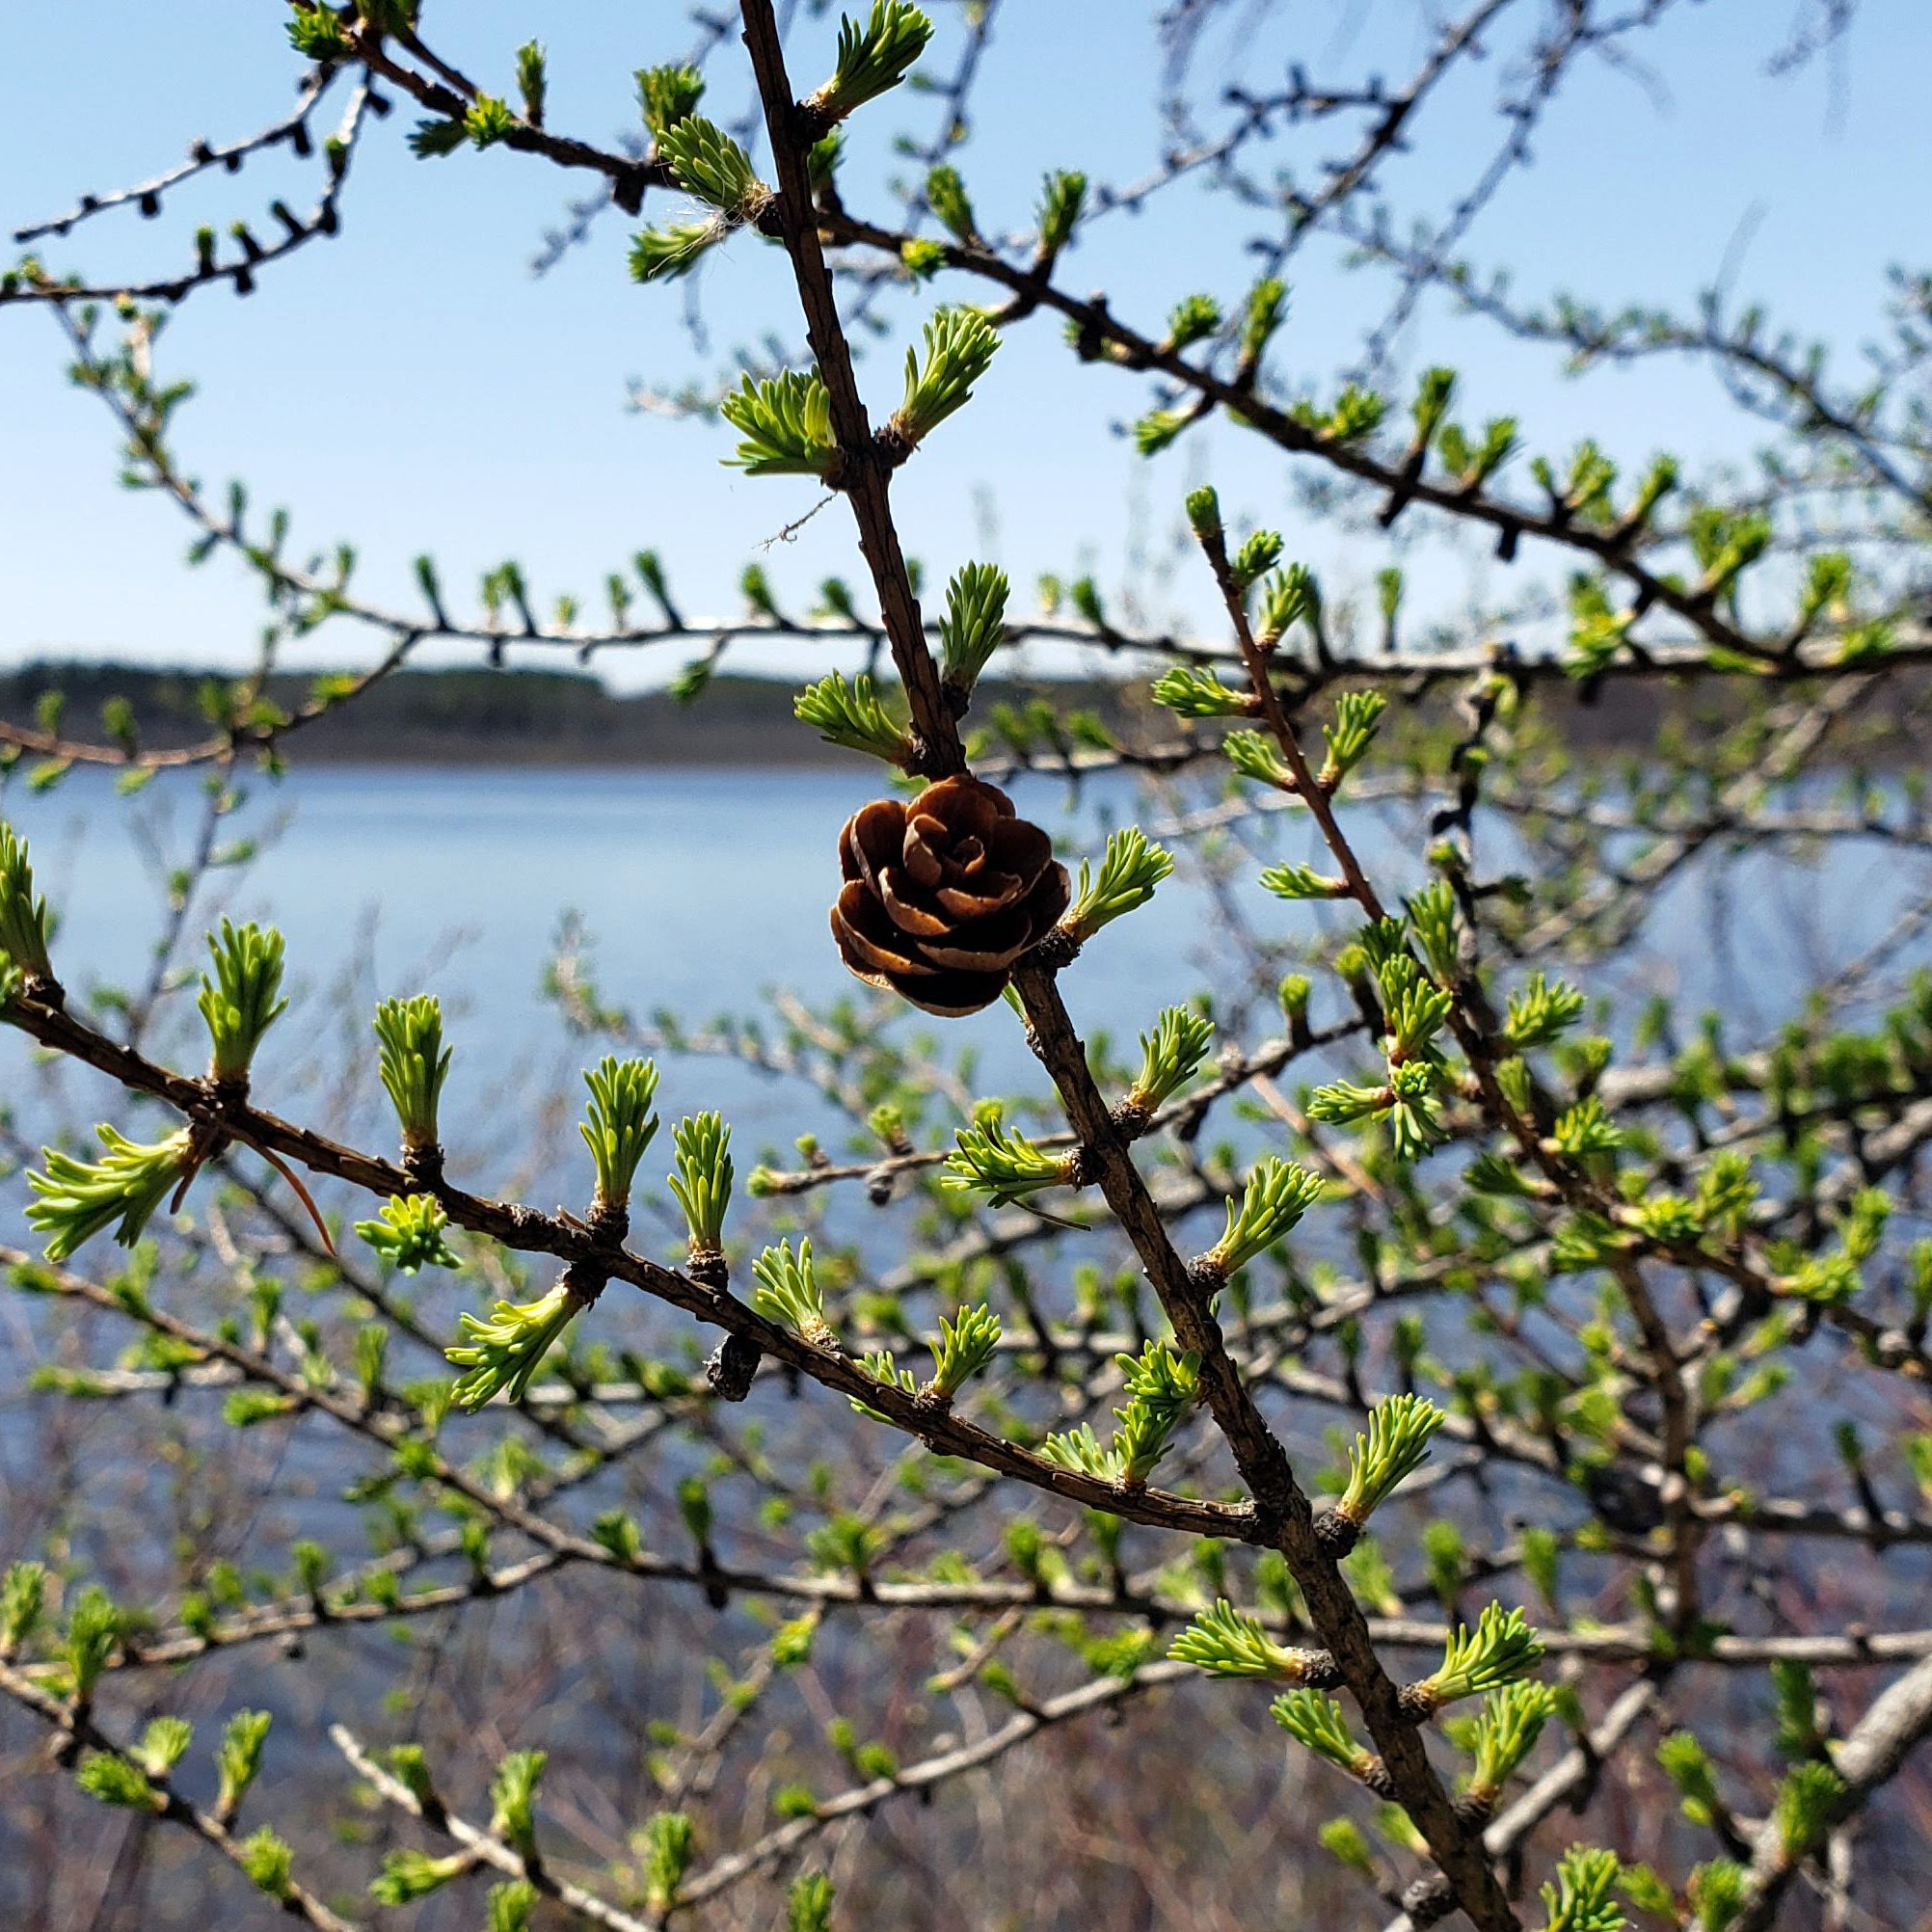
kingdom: Plantae
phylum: Tracheophyta
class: Pinopsida
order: Pinales
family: Pinaceae
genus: Larix
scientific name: Larix laricina
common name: American larch
